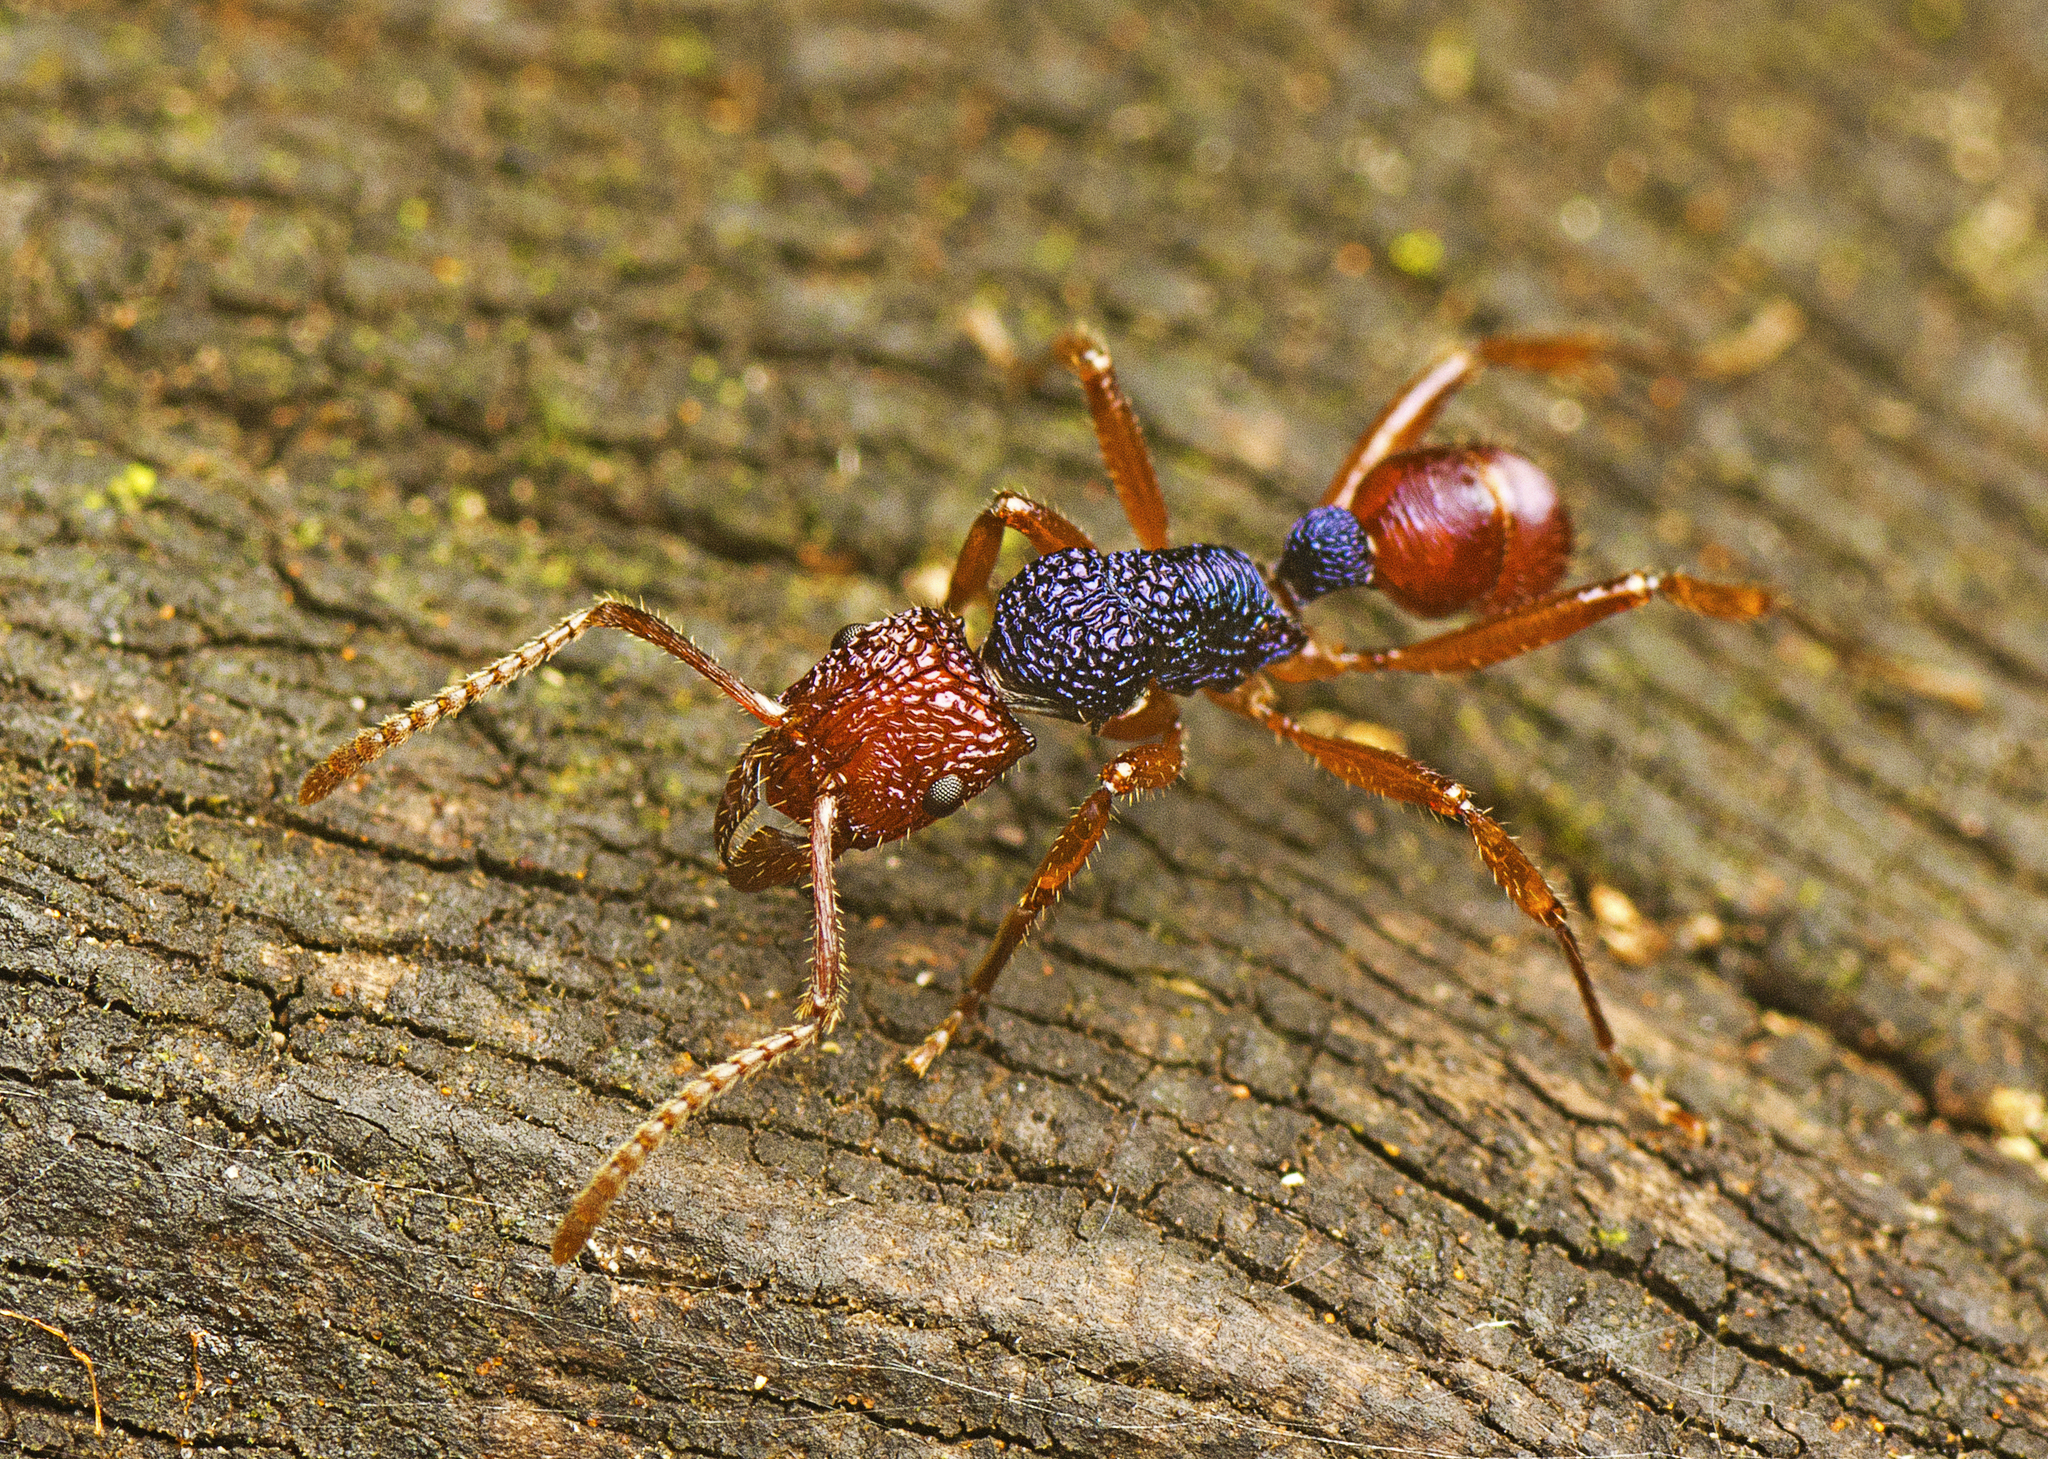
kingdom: Animalia
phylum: Arthropoda
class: Insecta
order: Hymenoptera
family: Formicidae
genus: Rhytidoponera
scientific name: Rhytidoponera croesus
